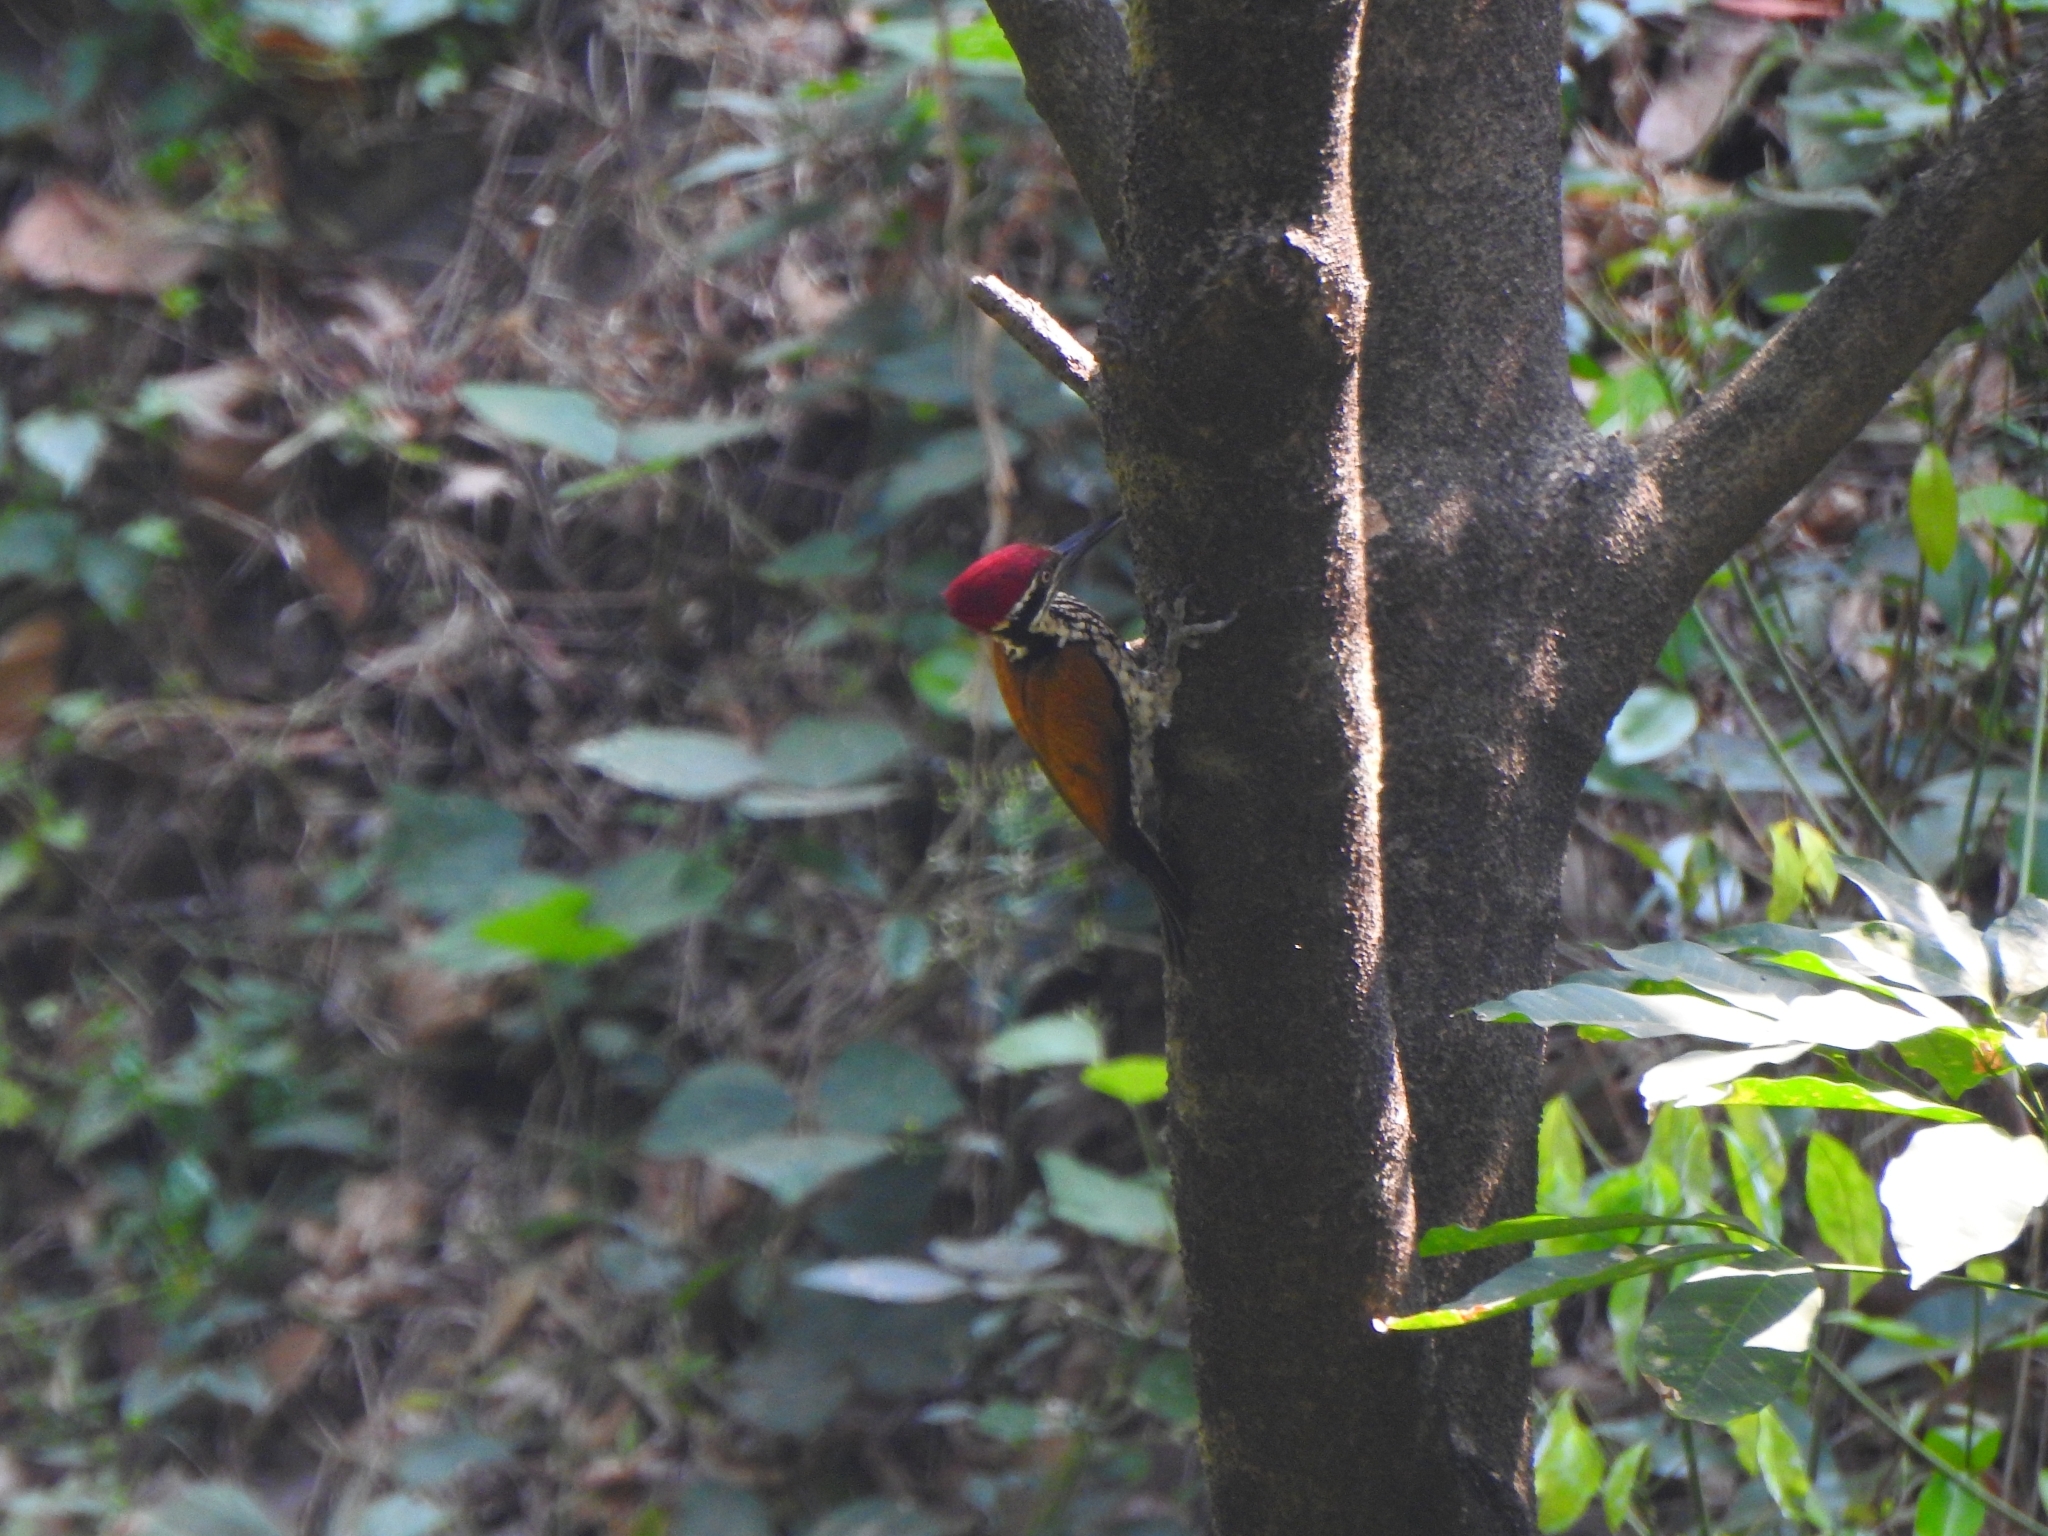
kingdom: Animalia
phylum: Chordata
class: Aves
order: Piciformes
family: Picidae
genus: Chrysocolaptes
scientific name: Chrysocolaptes socialis
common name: Malabar flameback
